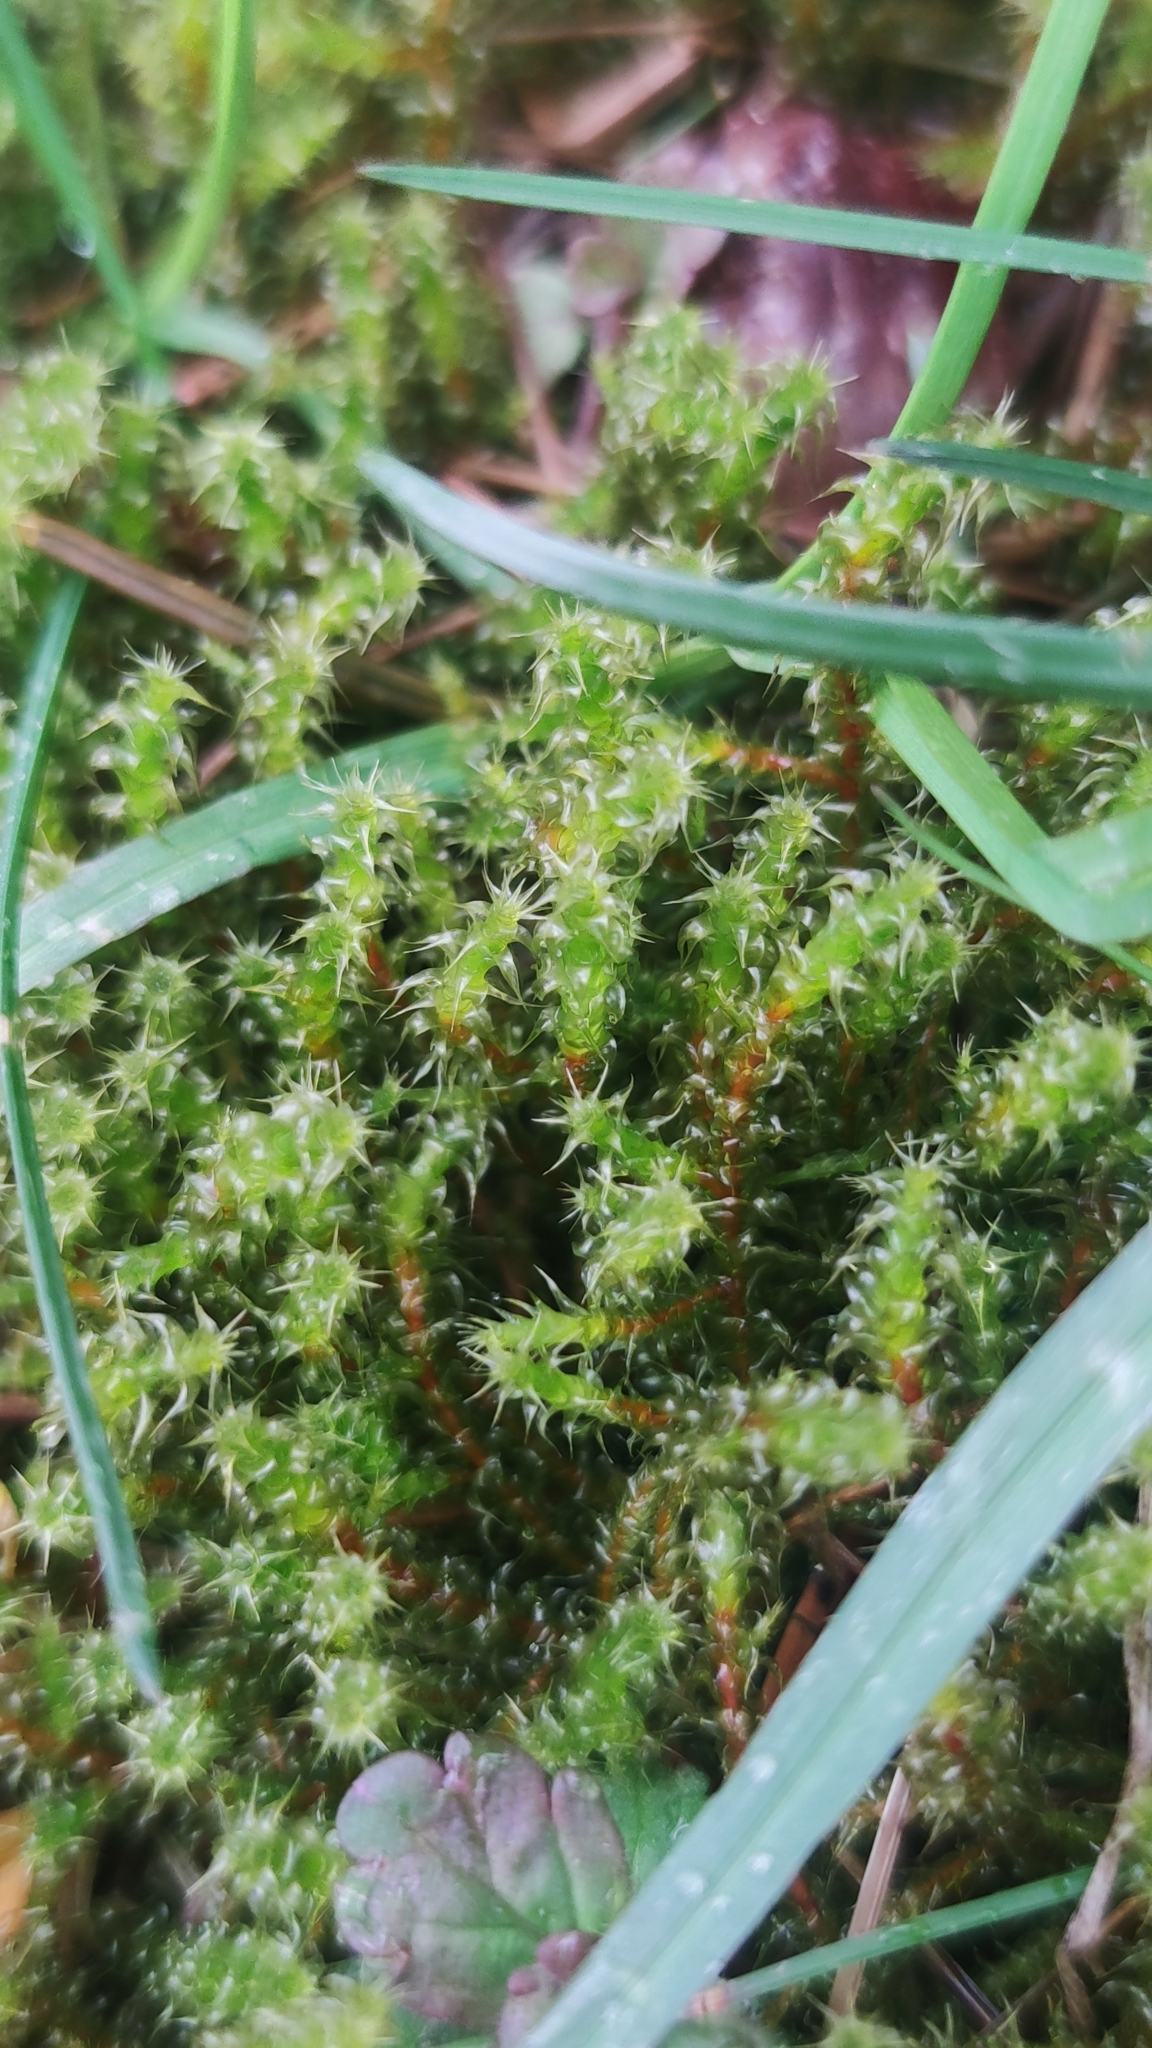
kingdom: Plantae
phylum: Bryophyta
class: Bryopsida
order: Hypnales
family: Hylocomiaceae
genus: Rhytidiadelphus
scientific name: Rhytidiadelphus squarrosus
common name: Springy turf-moss
